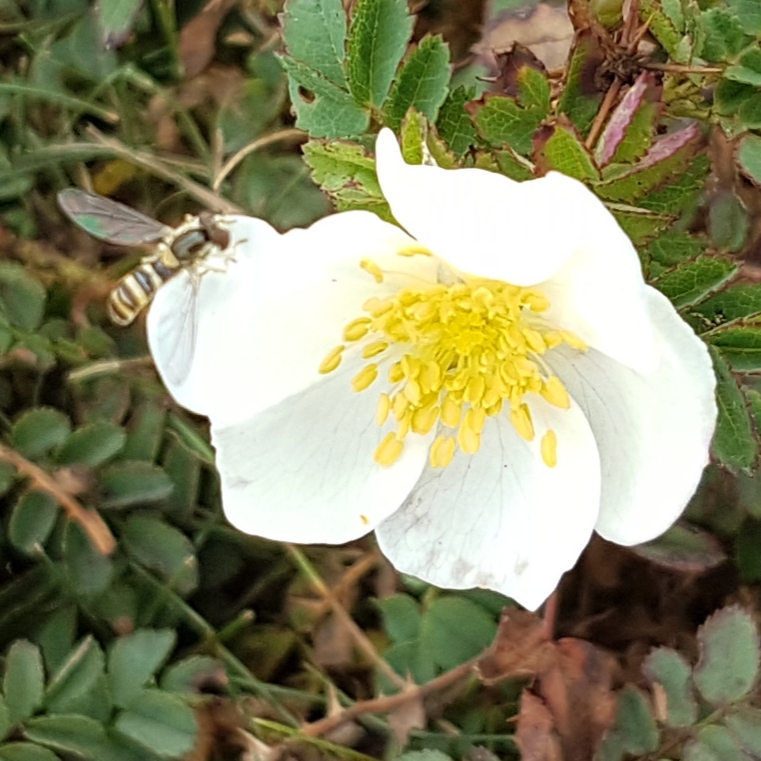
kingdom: Animalia
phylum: Arthropoda
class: Insecta
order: Diptera
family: Syrphidae
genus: Sphaerophoria
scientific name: Sphaerophoria
